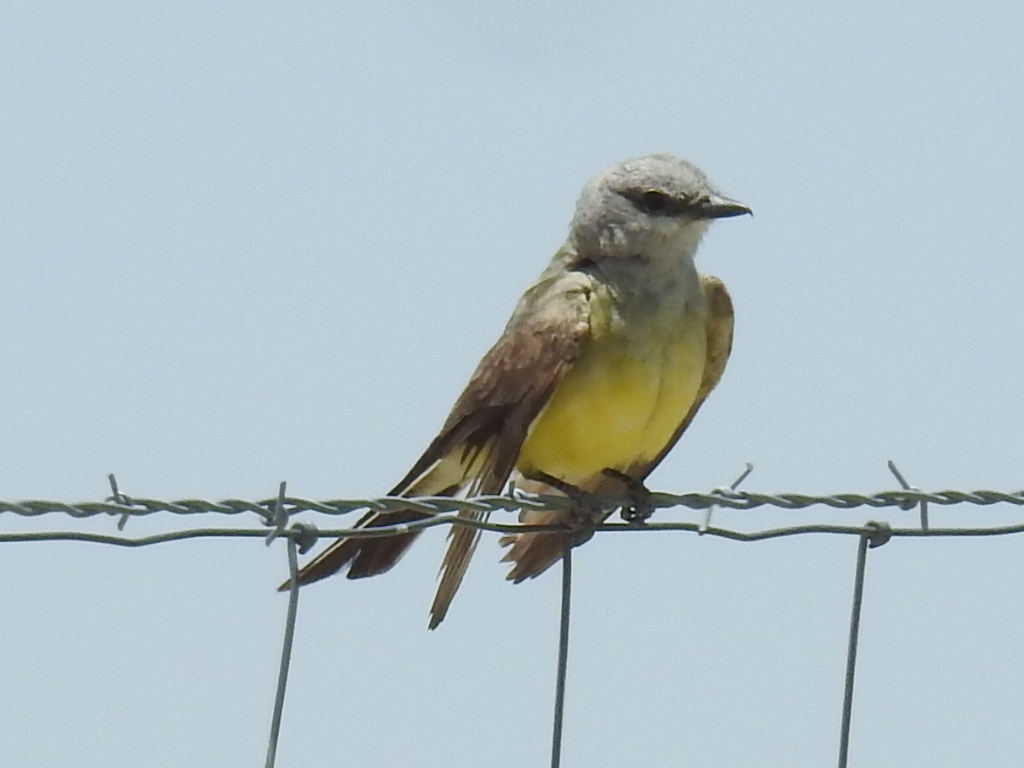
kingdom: Animalia
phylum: Chordata
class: Aves
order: Passeriformes
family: Tyrannidae
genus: Tyrannus
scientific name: Tyrannus verticalis
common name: Western kingbird
